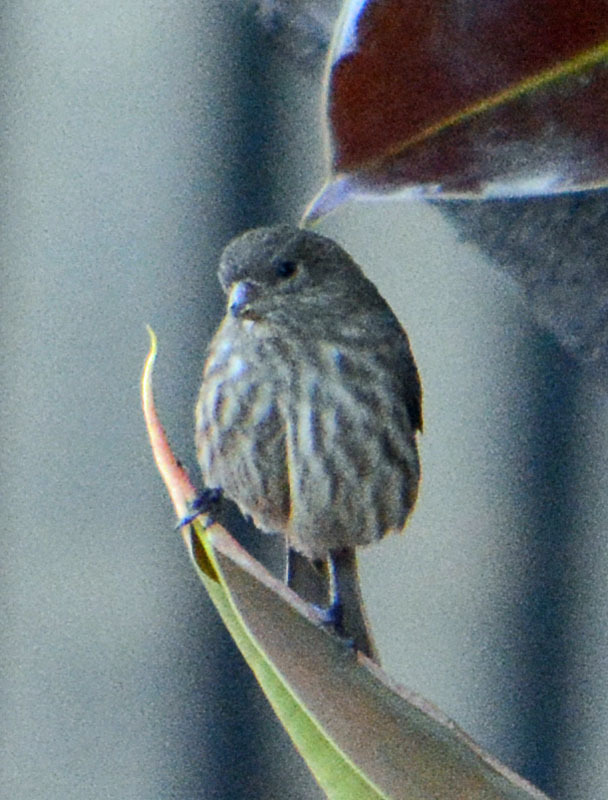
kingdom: Animalia
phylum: Chordata
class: Aves
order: Passeriformes
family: Fringillidae
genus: Haemorhous
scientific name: Haemorhous mexicanus
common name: House finch
